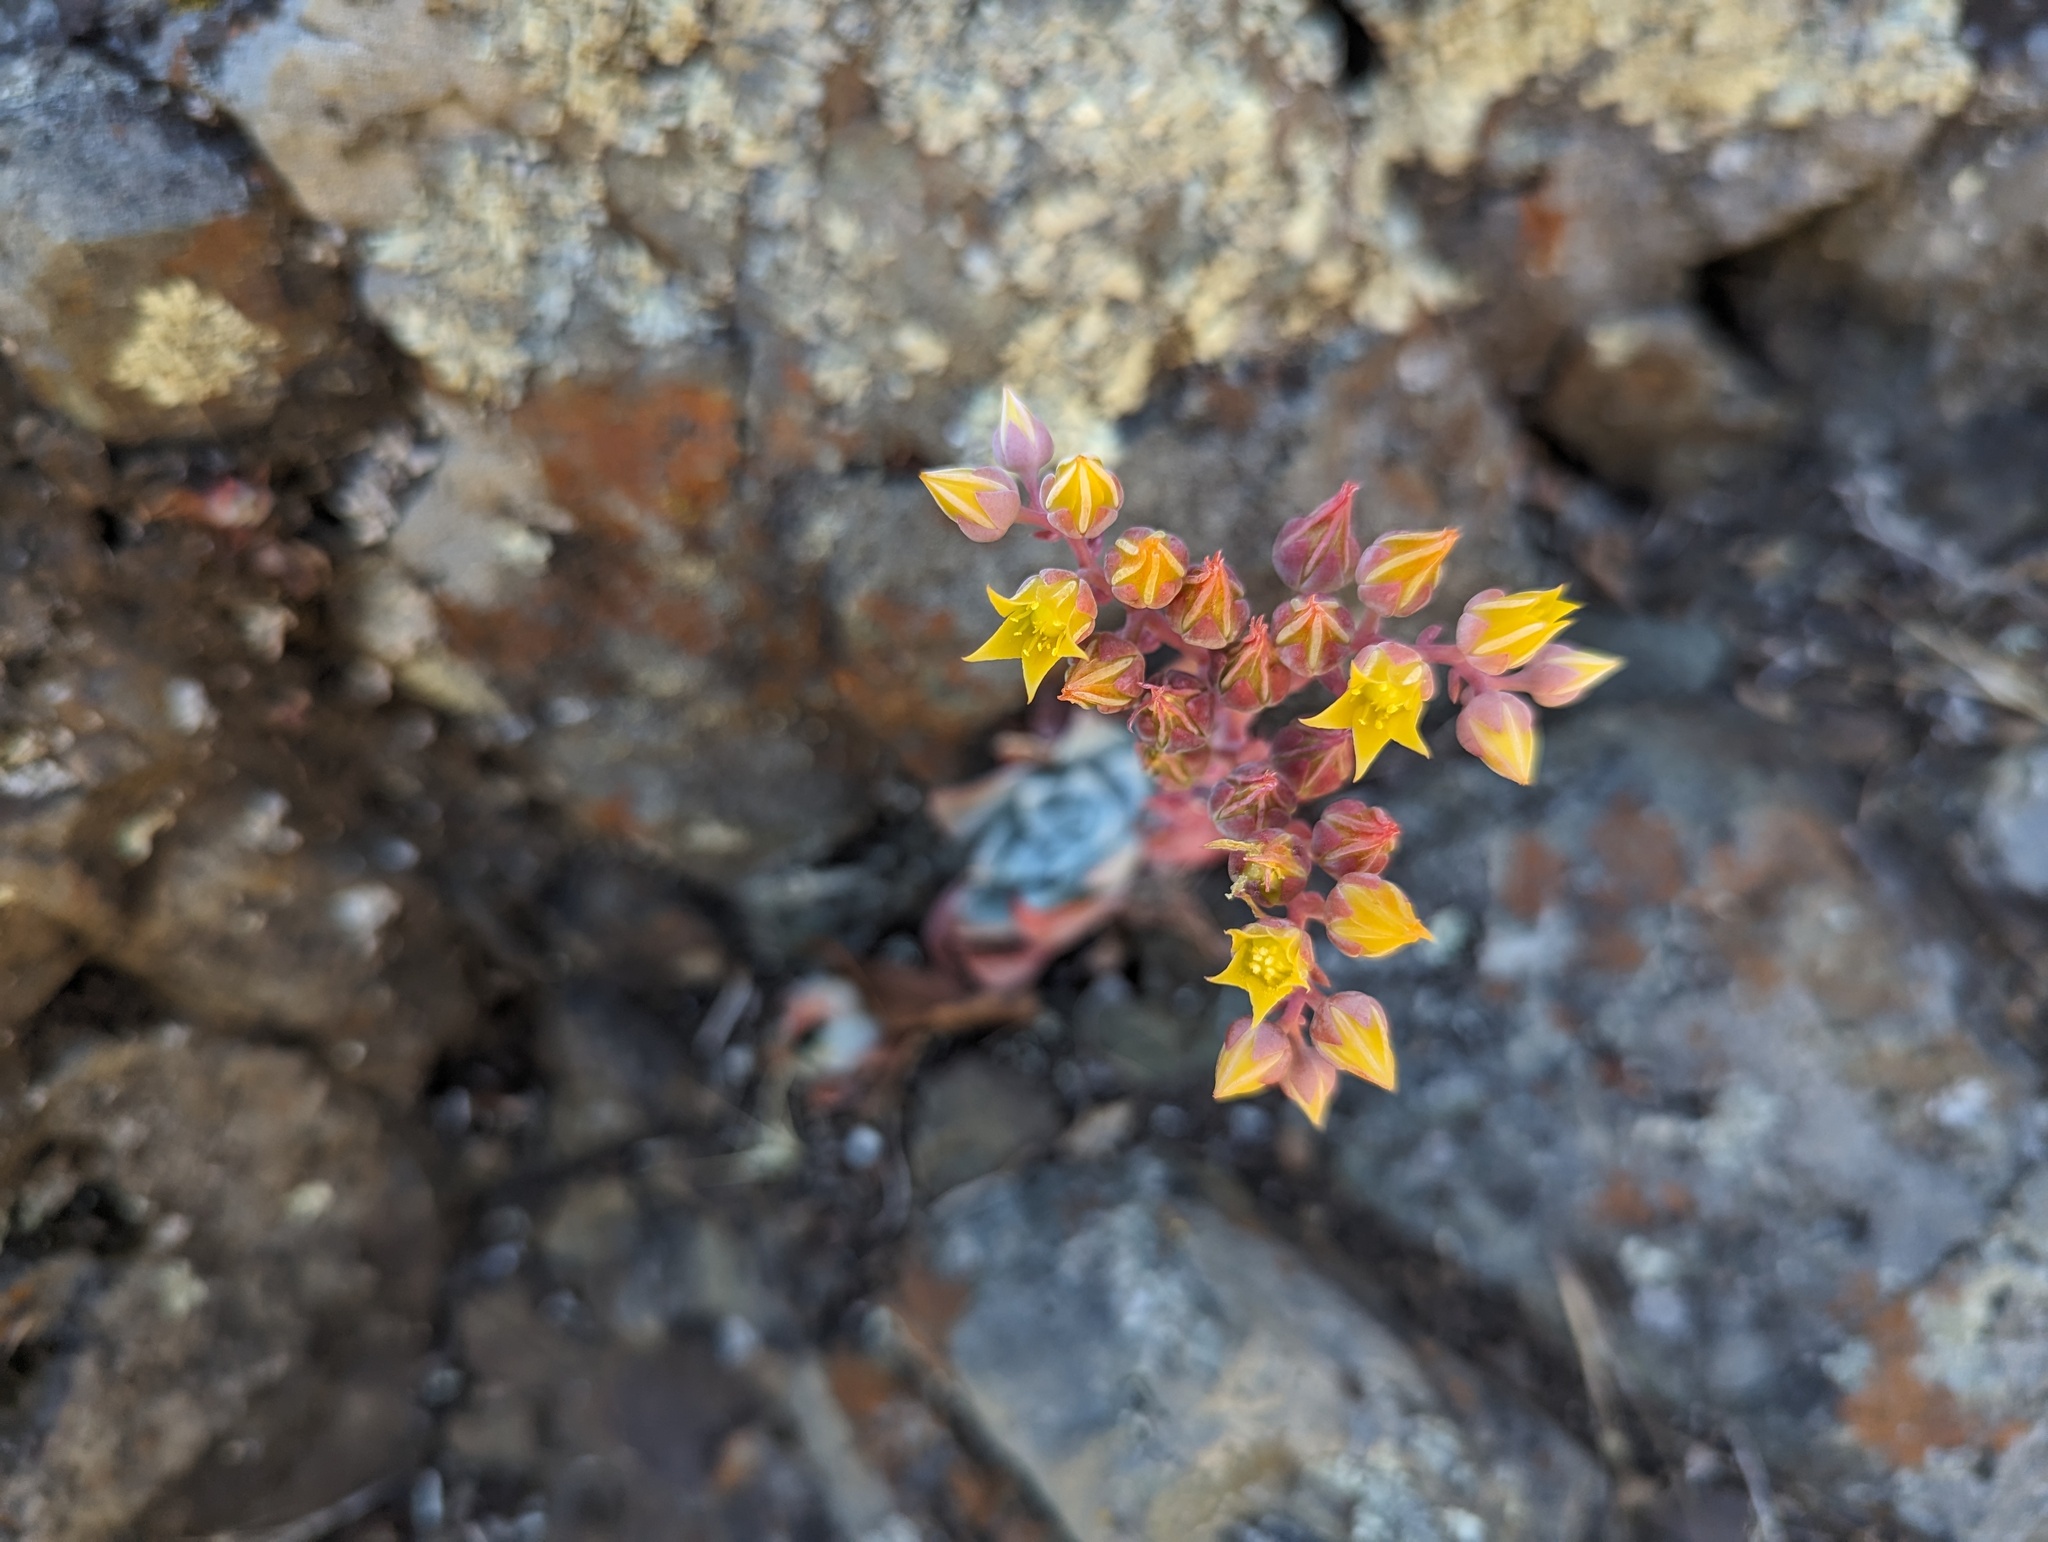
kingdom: Plantae
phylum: Tracheophyta
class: Magnoliopsida
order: Saxifragales
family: Crassulaceae
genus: Dudleya
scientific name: Dudleya cymosa
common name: Canyon dudleya
